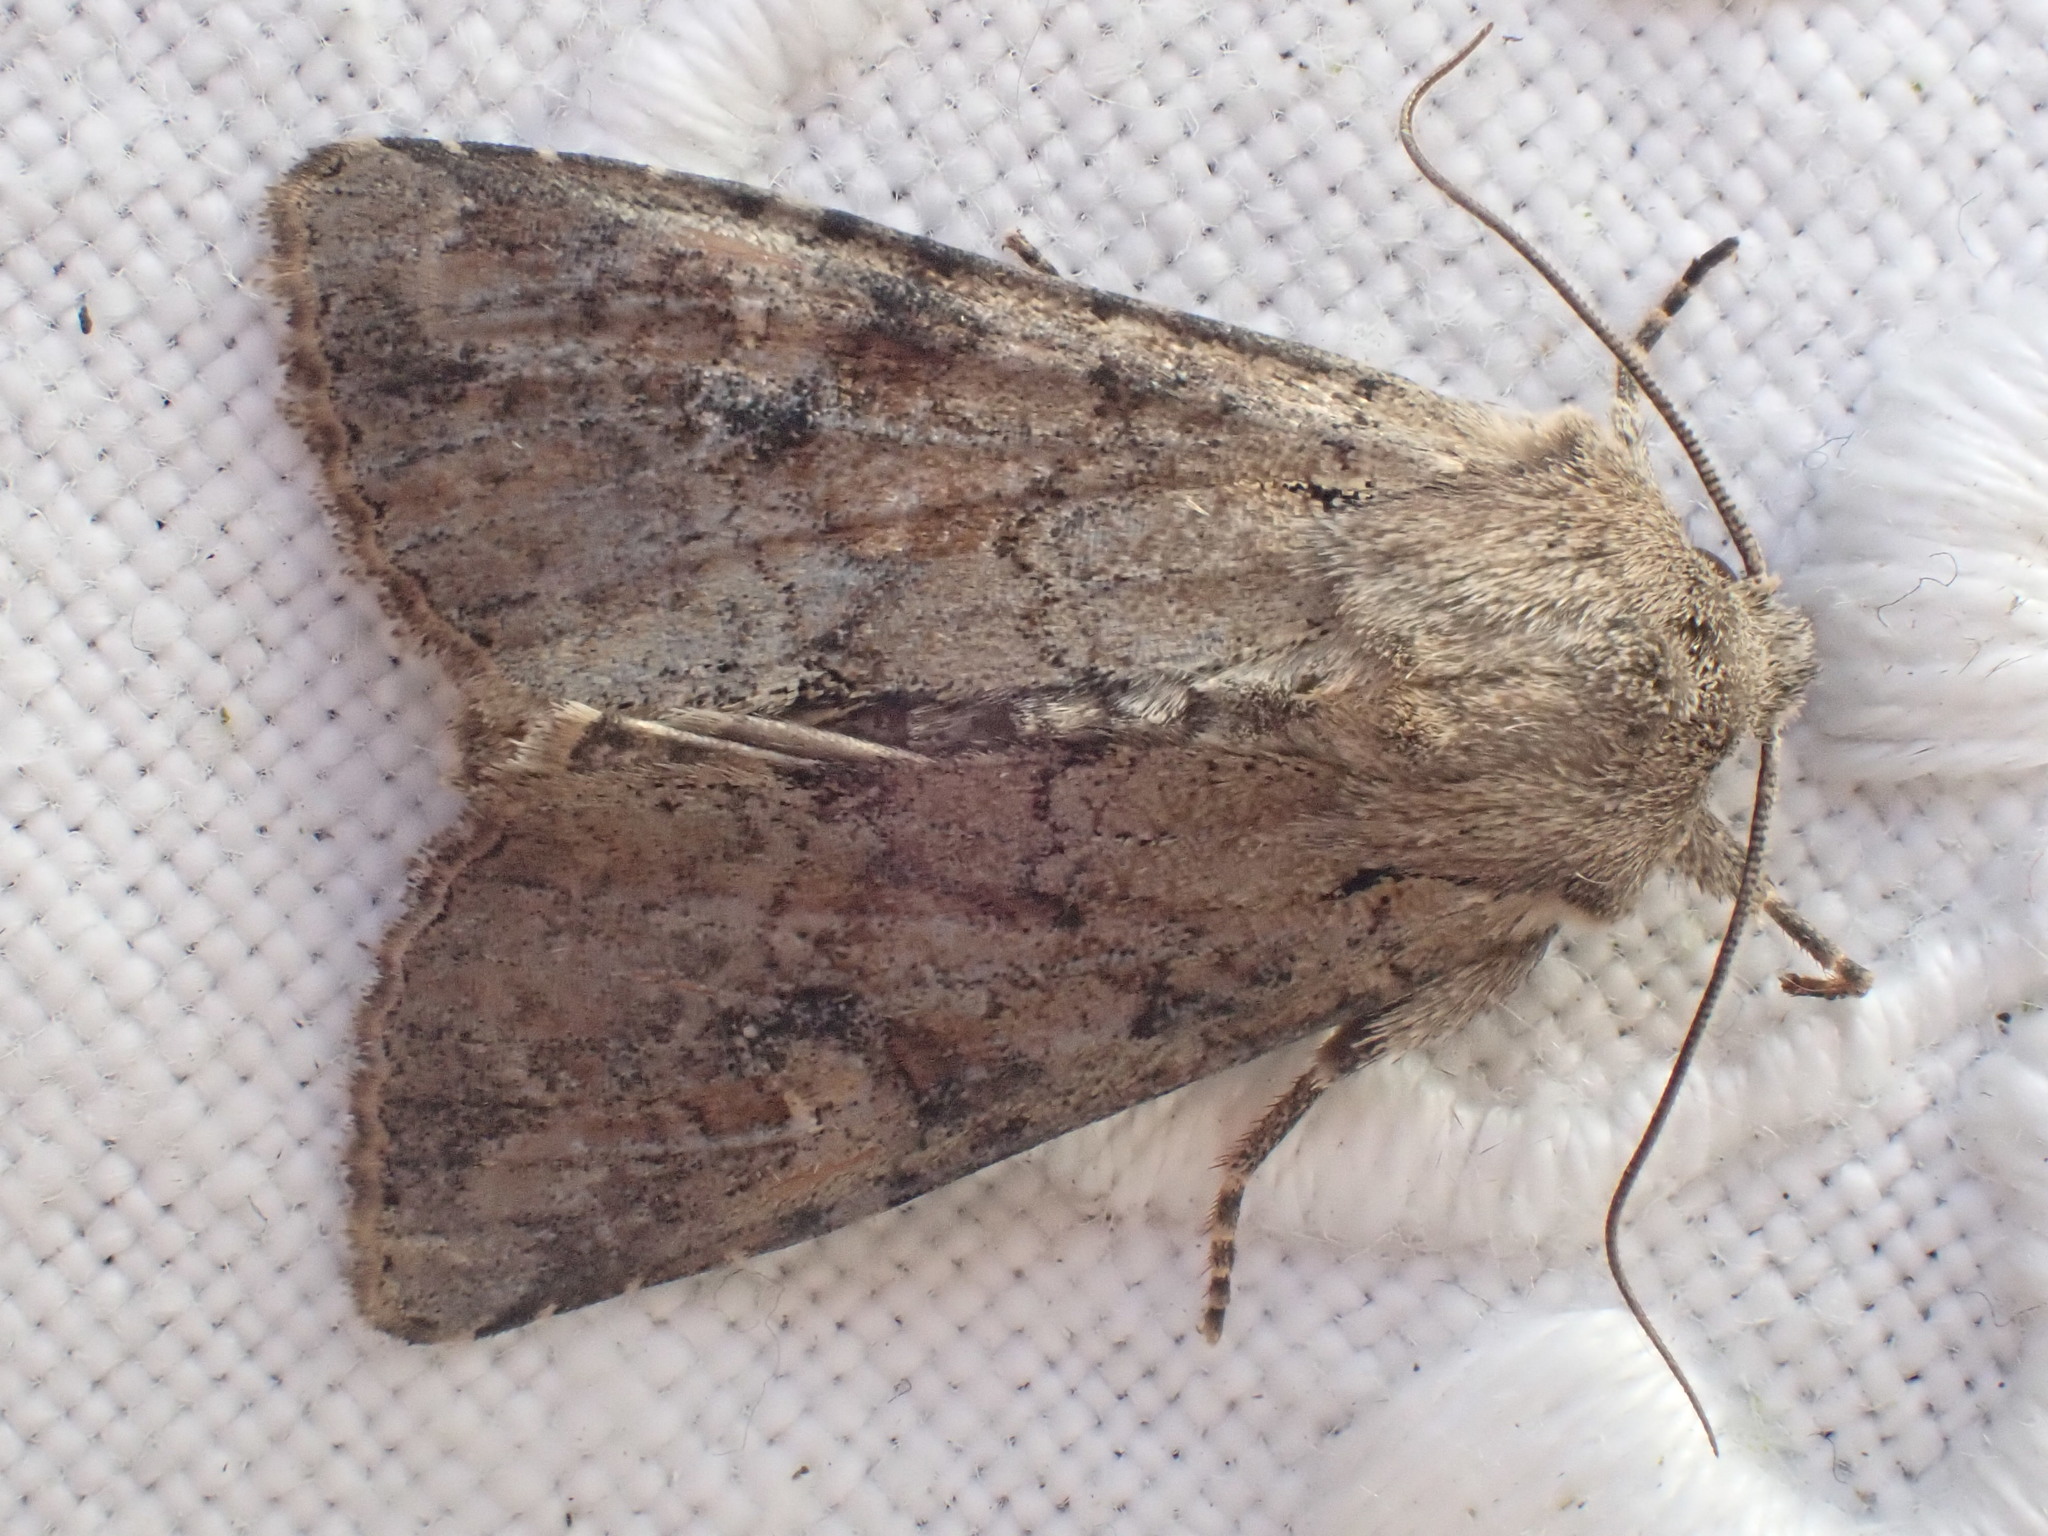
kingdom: Animalia
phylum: Arthropoda
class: Insecta
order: Lepidoptera
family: Noctuidae
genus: Apamea
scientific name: Apamea sordens
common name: Rustic shoulder-knot
